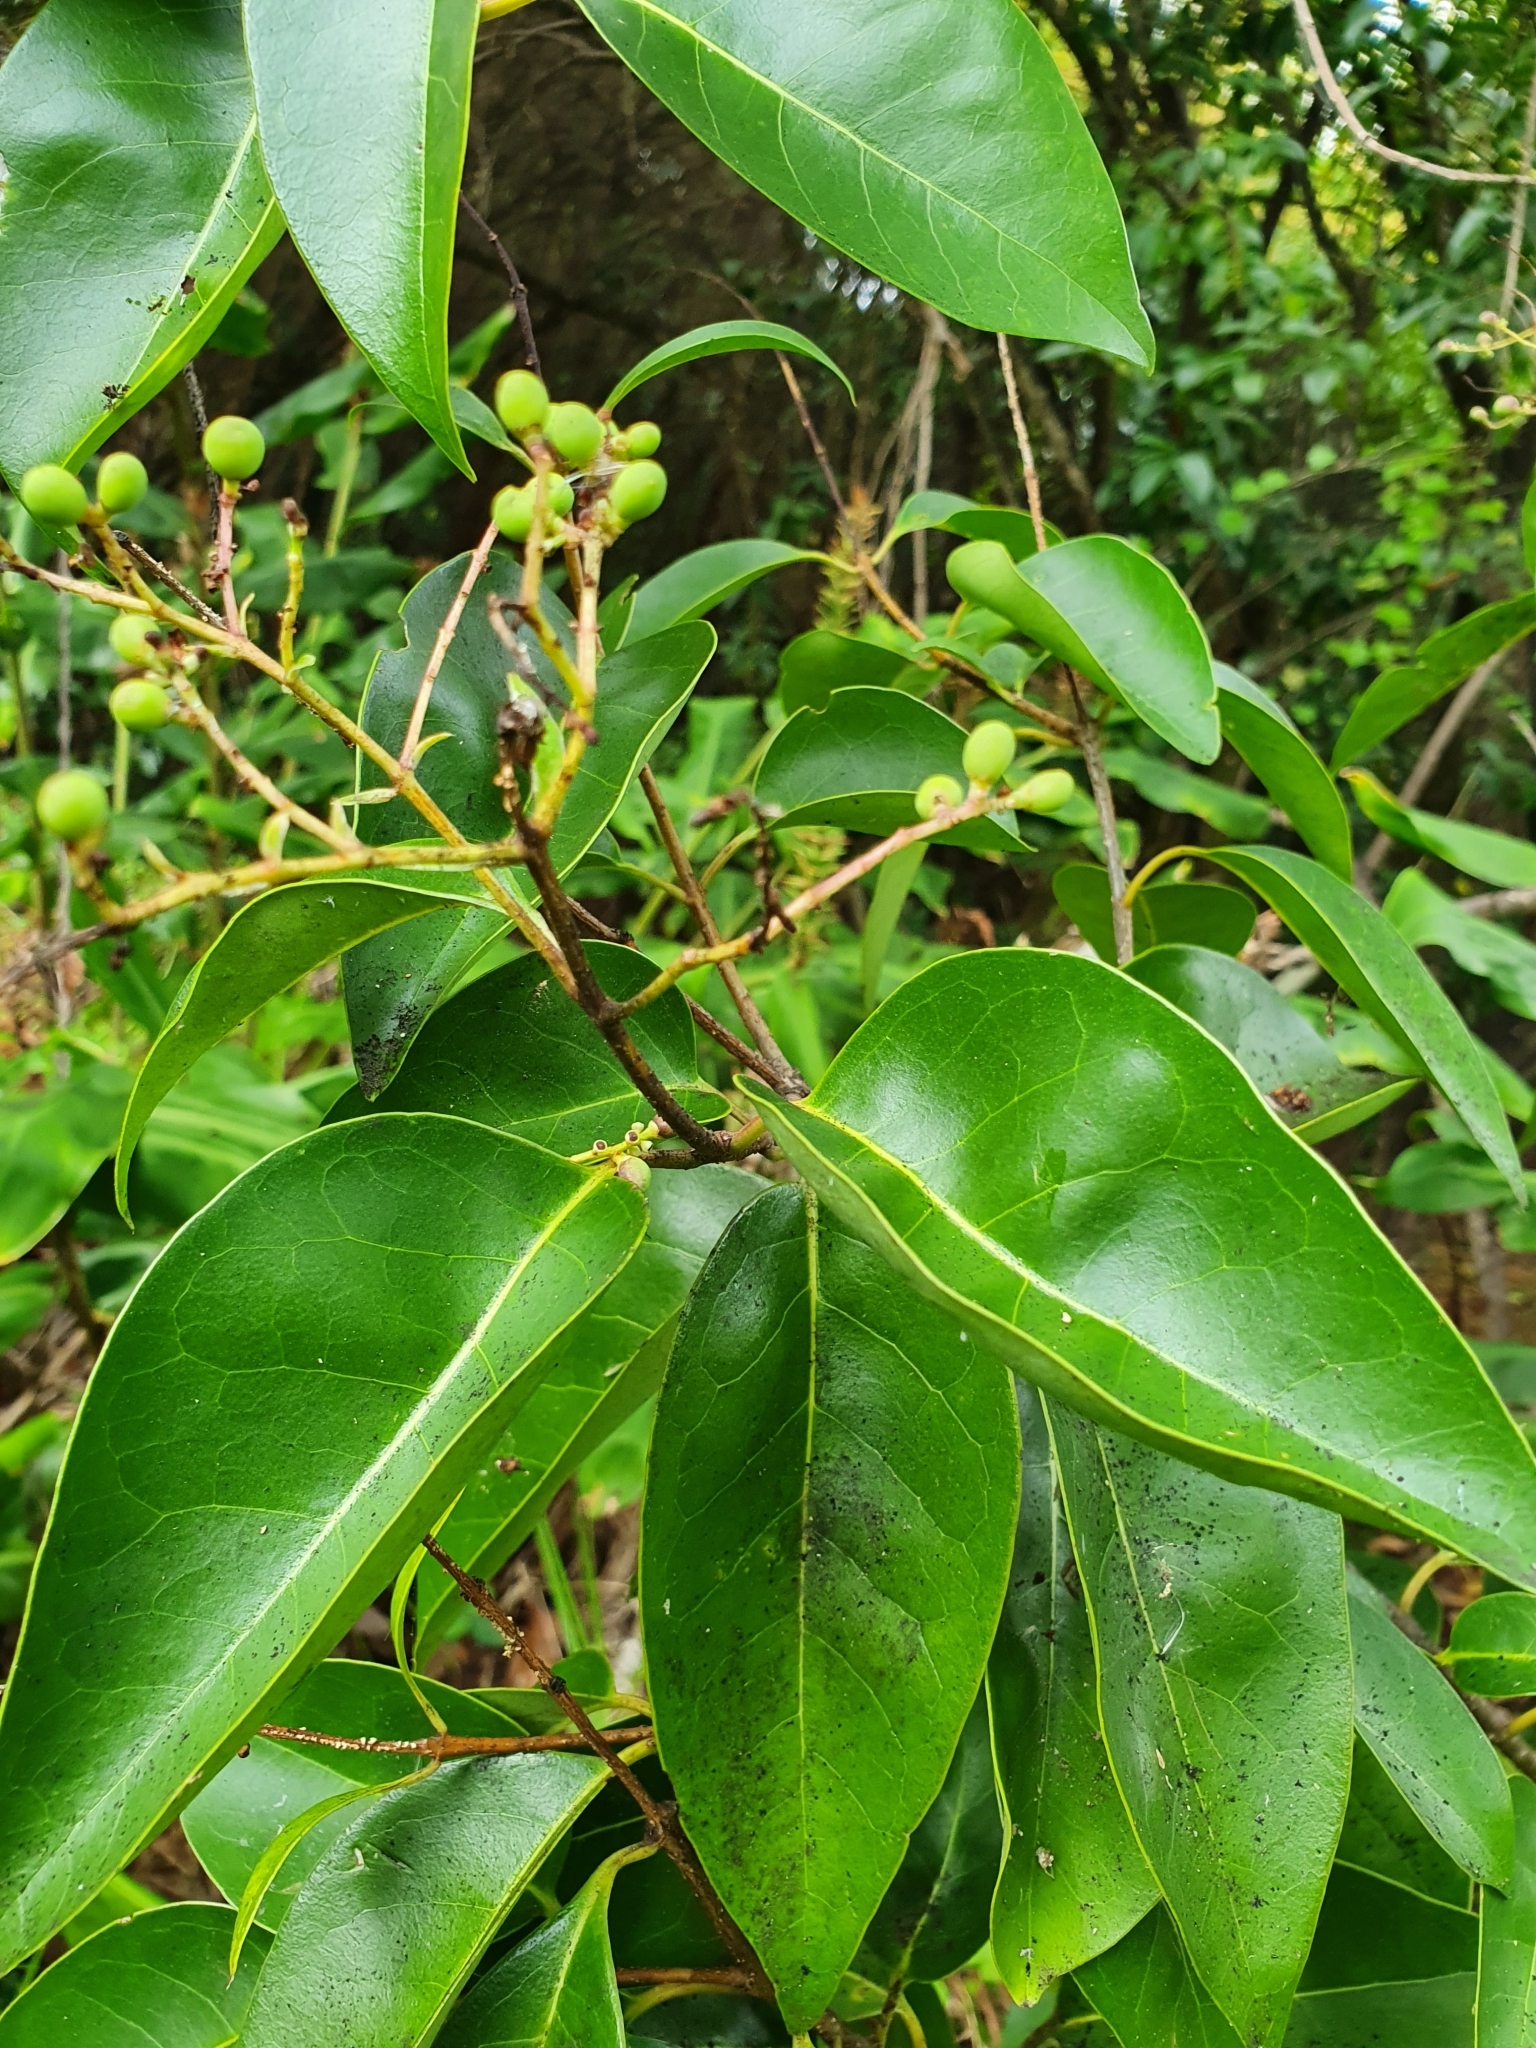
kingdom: Plantae
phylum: Tracheophyta
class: Magnoliopsida
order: Lamiales
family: Oleaceae
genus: Ligustrum
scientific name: Ligustrum lucidum
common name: Glossy privet
